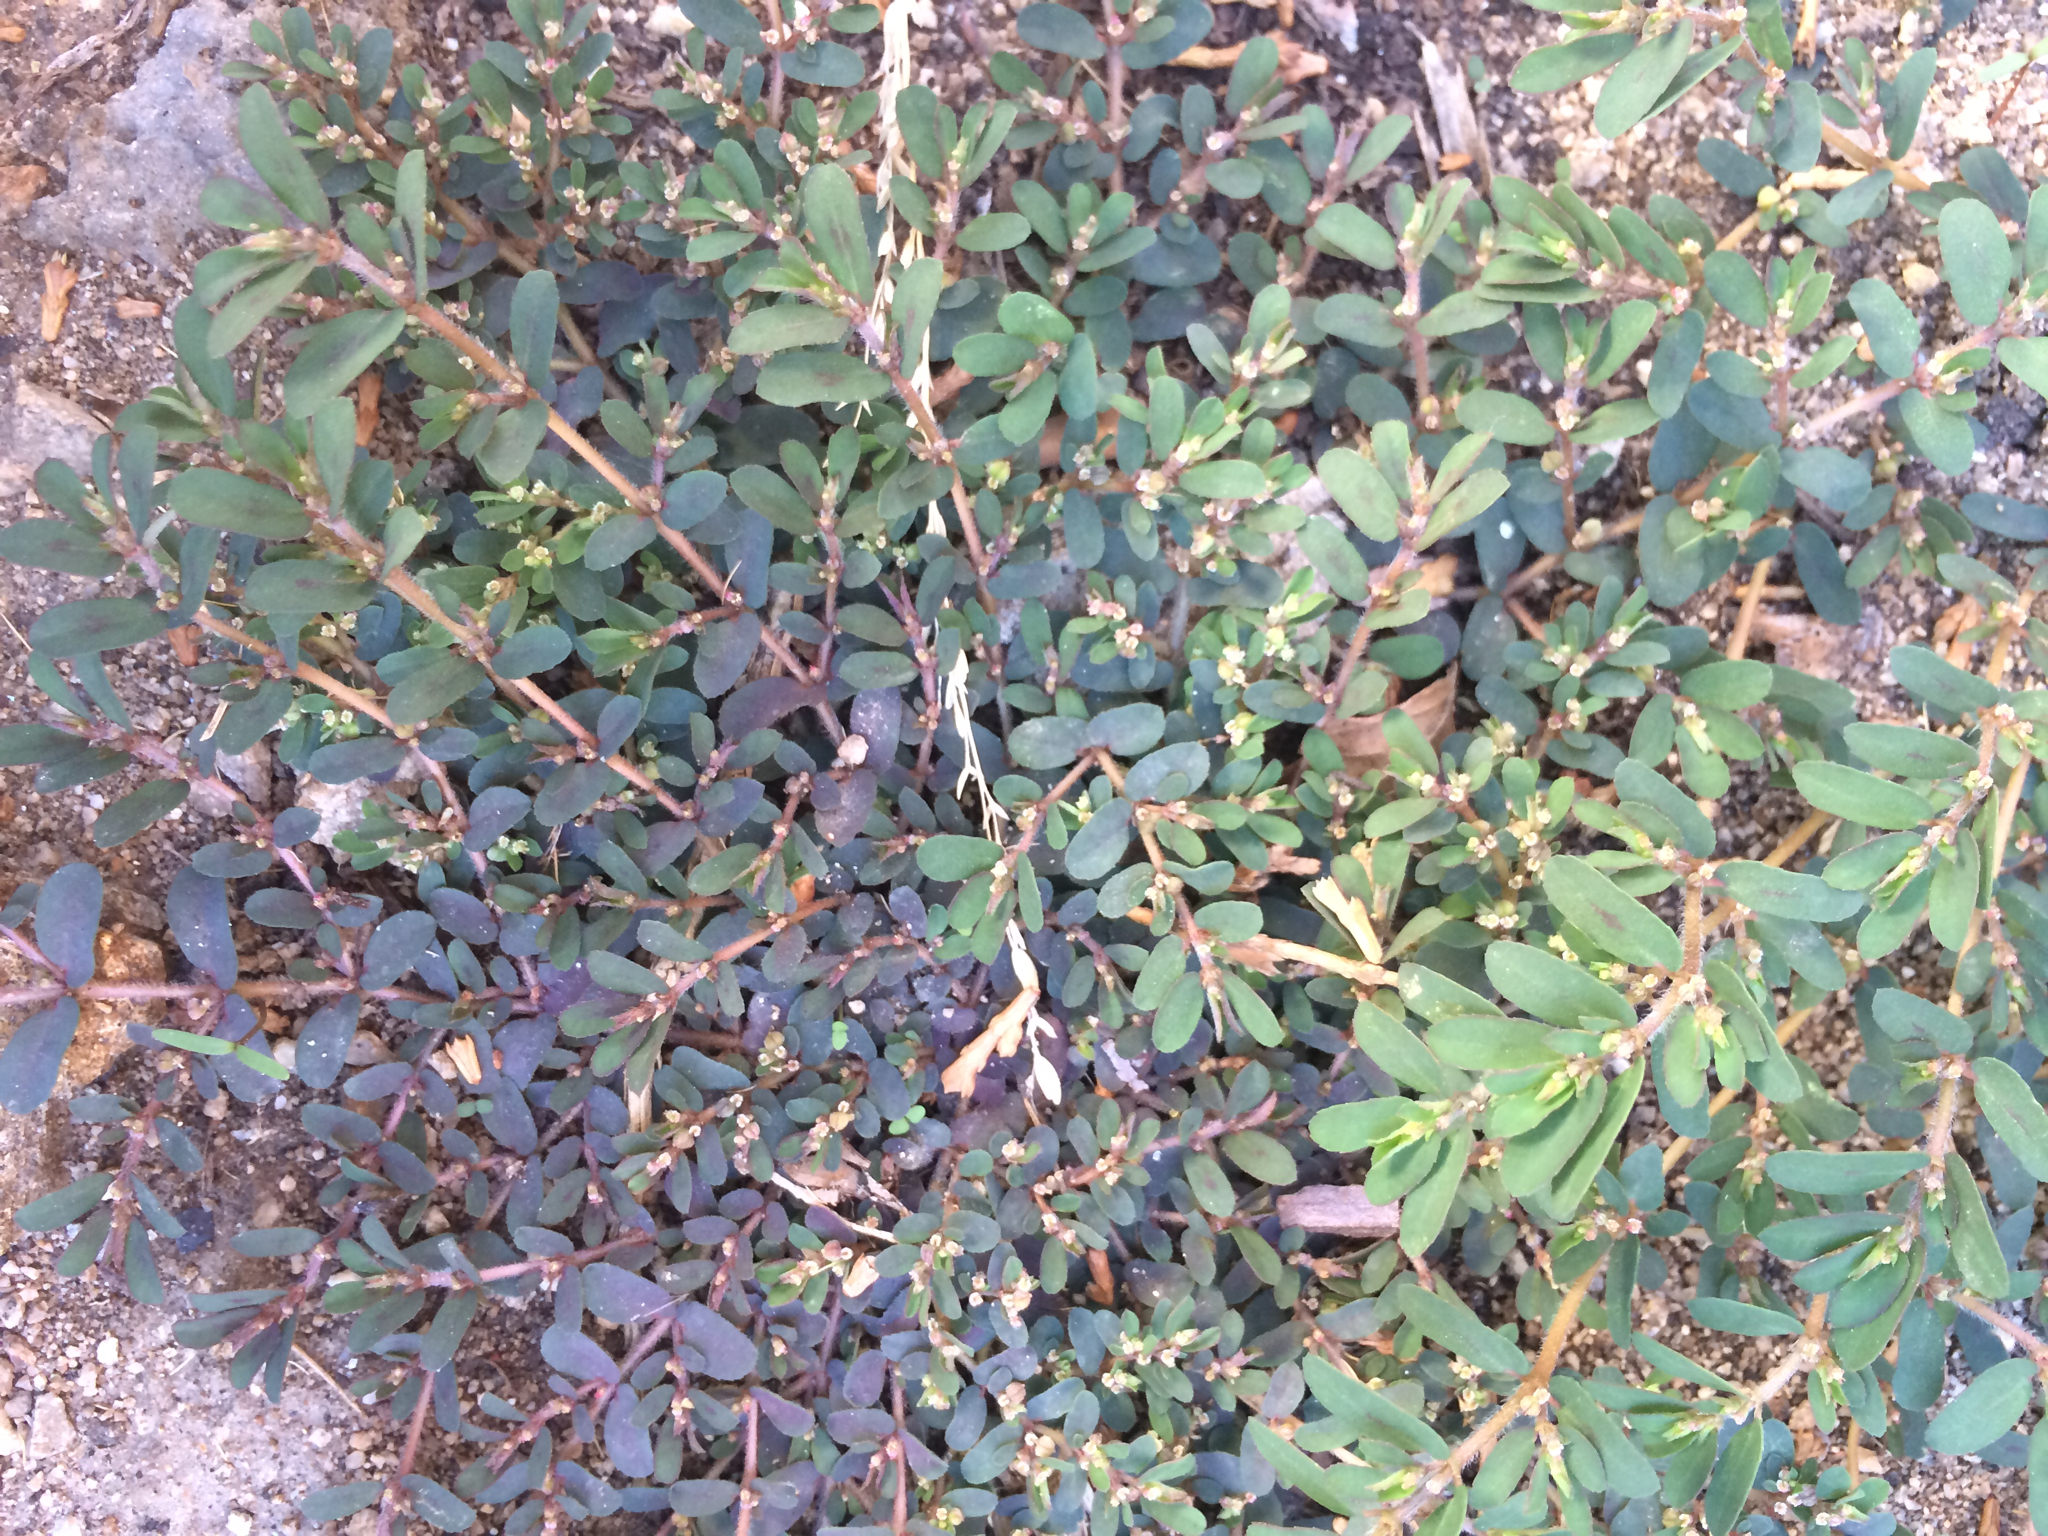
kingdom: Plantae
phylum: Tracheophyta
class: Magnoliopsida
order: Malpighiales
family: Euphorbiaceae
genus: Euphorbia
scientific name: Euphorbia maculata
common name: Spotted spurge
